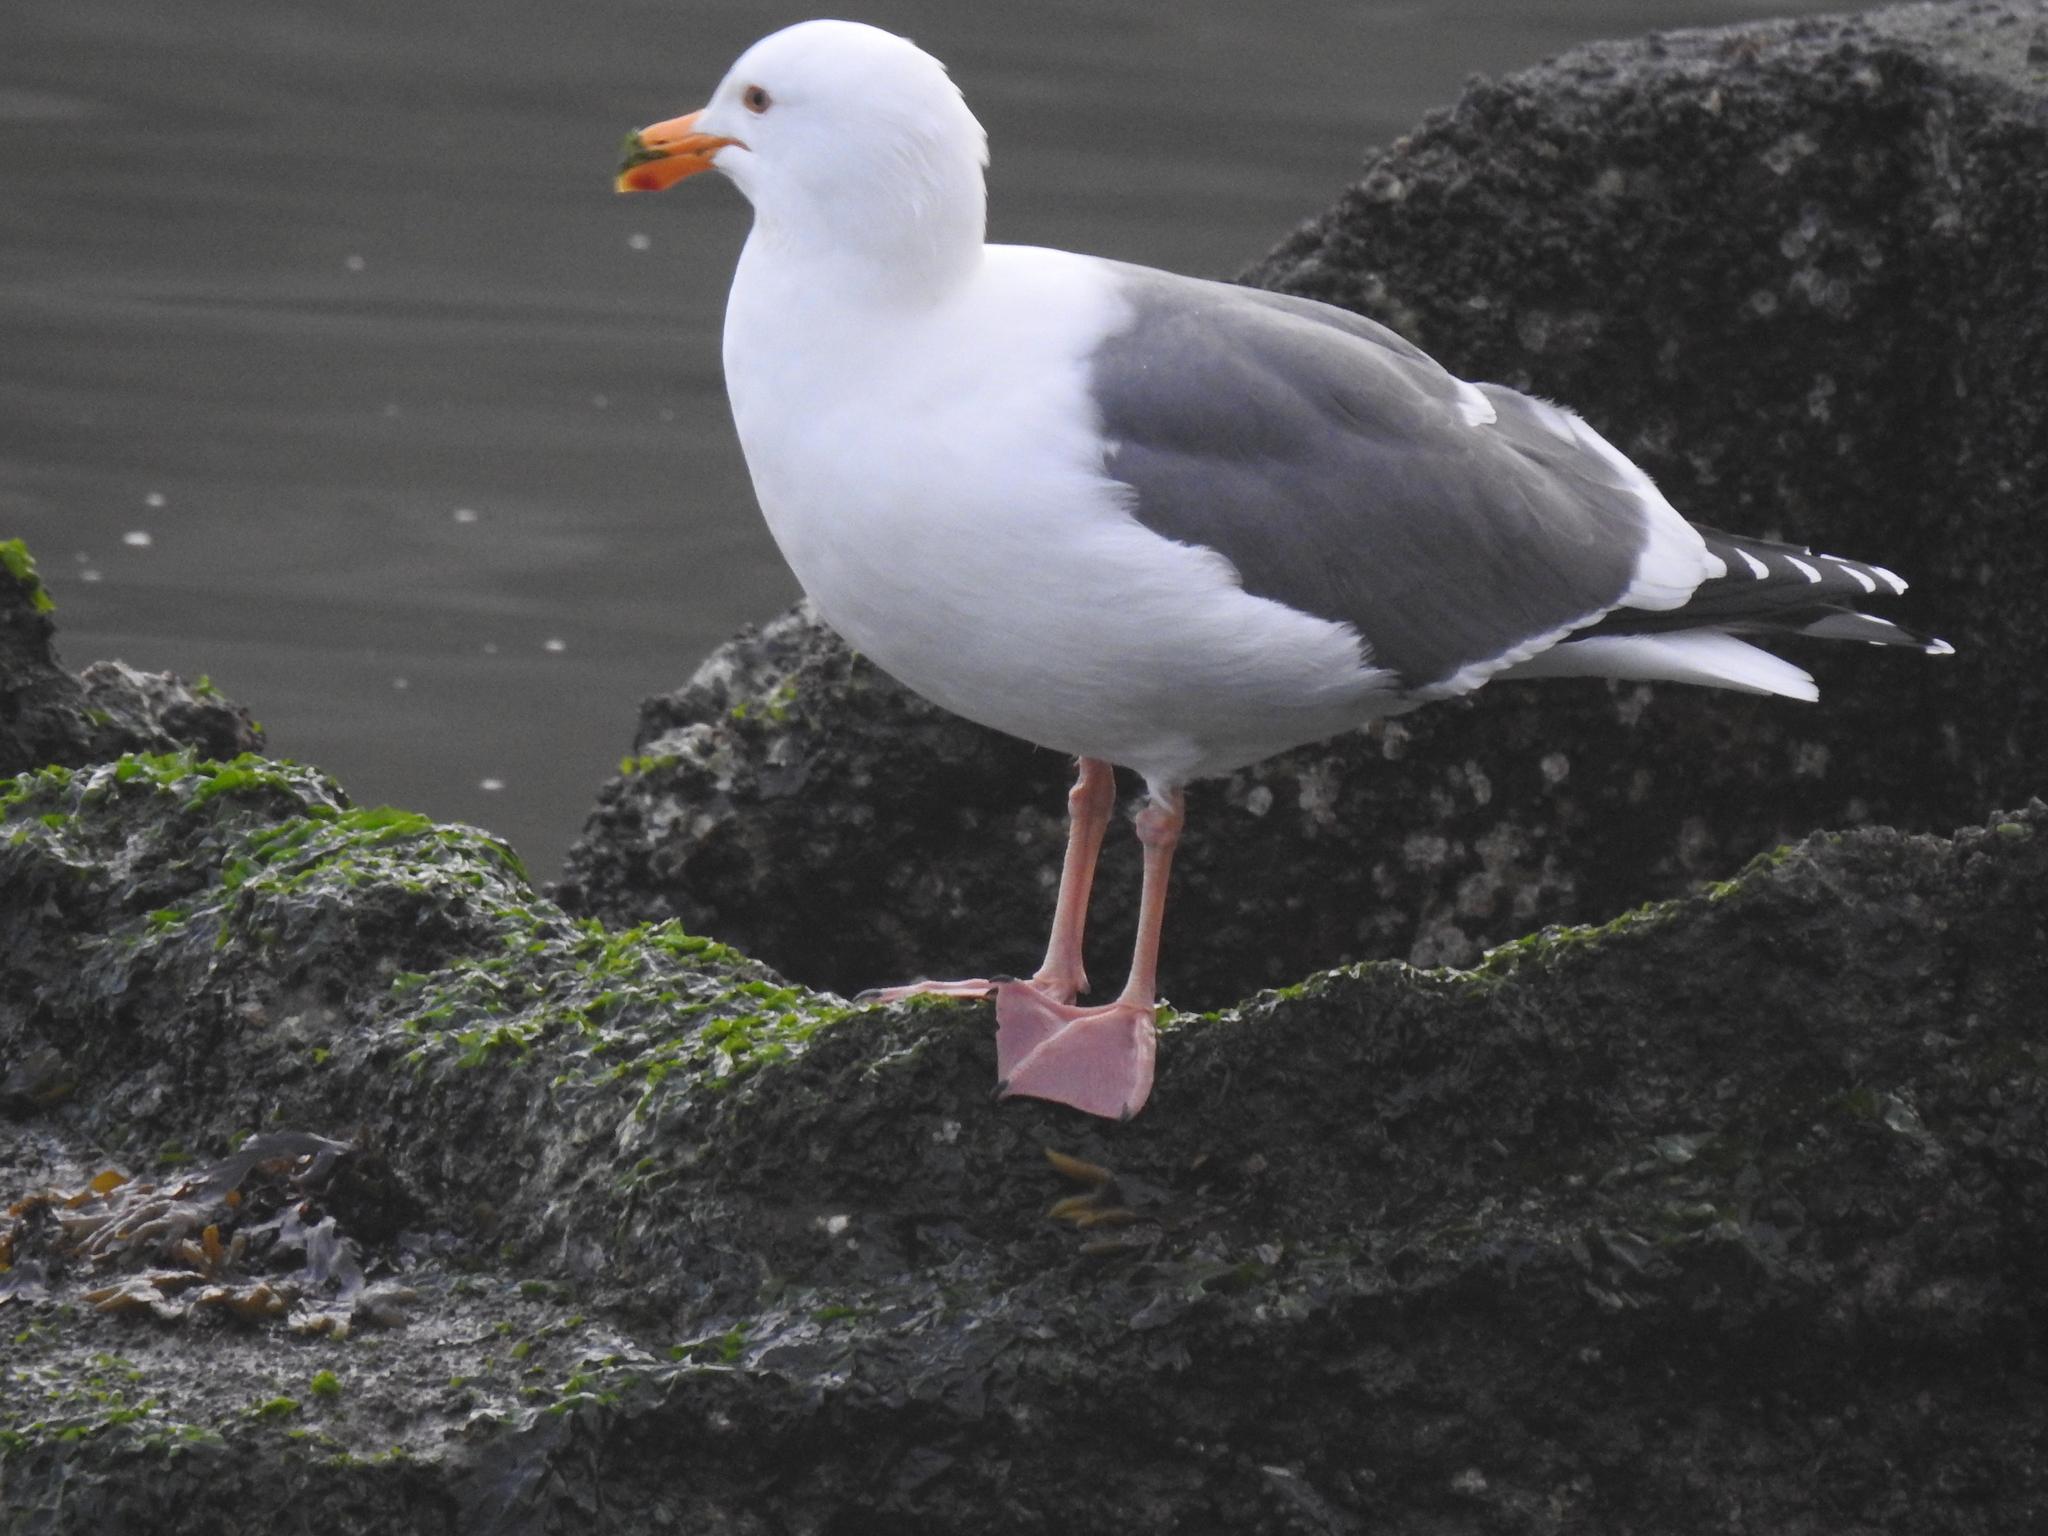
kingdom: Animalia
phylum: Chordata
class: Aves
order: Charadriiformes
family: Laridae
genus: Larus
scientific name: Larus occidentalis
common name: Western gull
